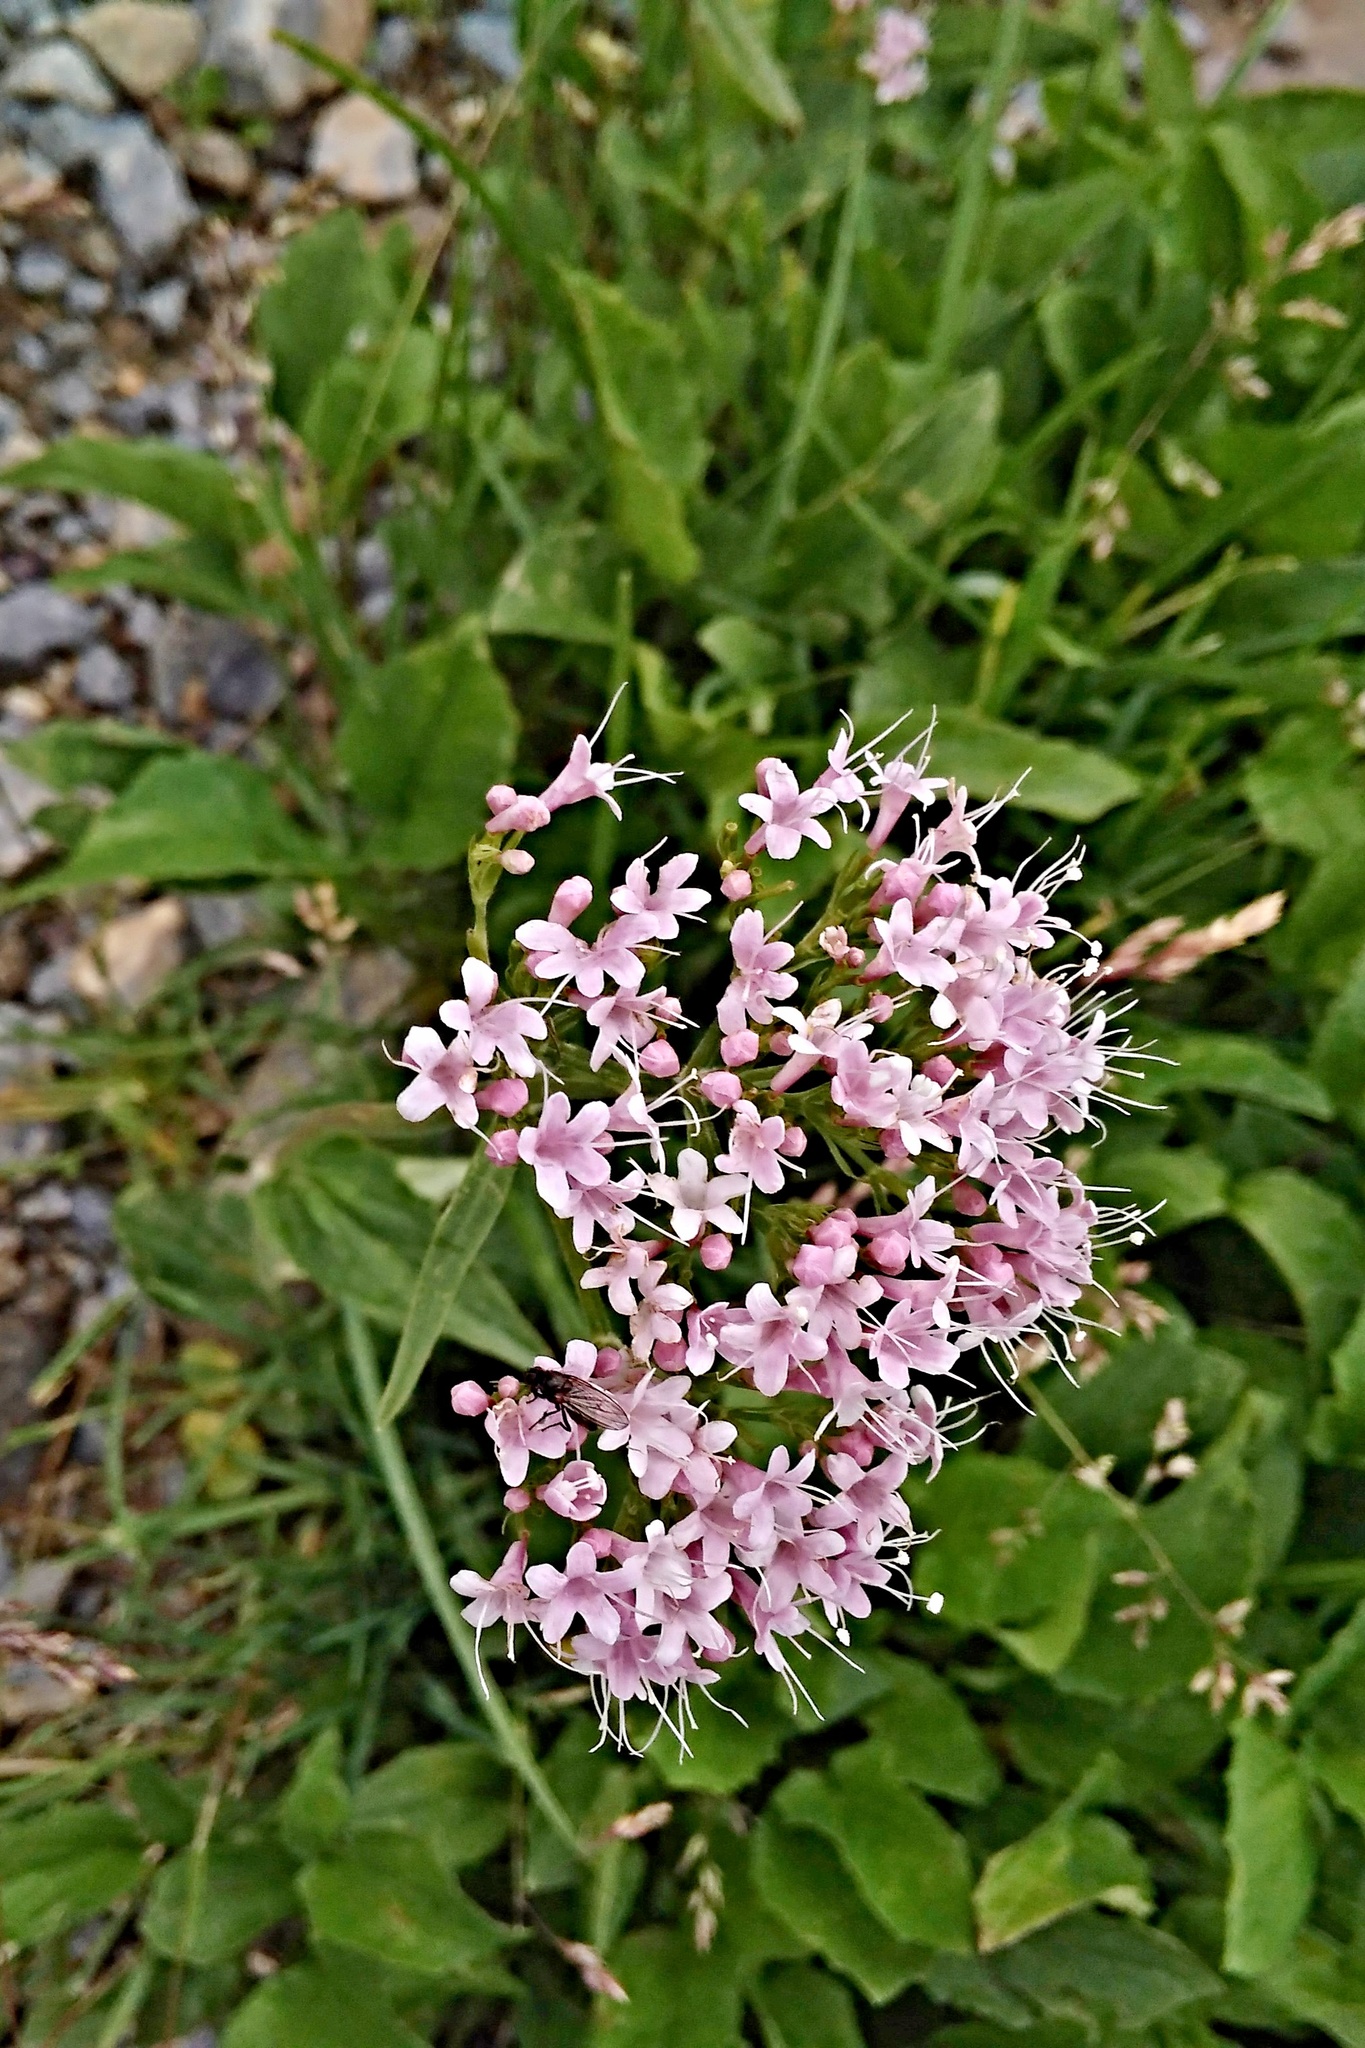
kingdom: Plantae
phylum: Tracheophyta
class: Magnoliopsida
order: Dipsacales
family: Caprifoliaceae
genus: Valeriana
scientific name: Valeriana montana
